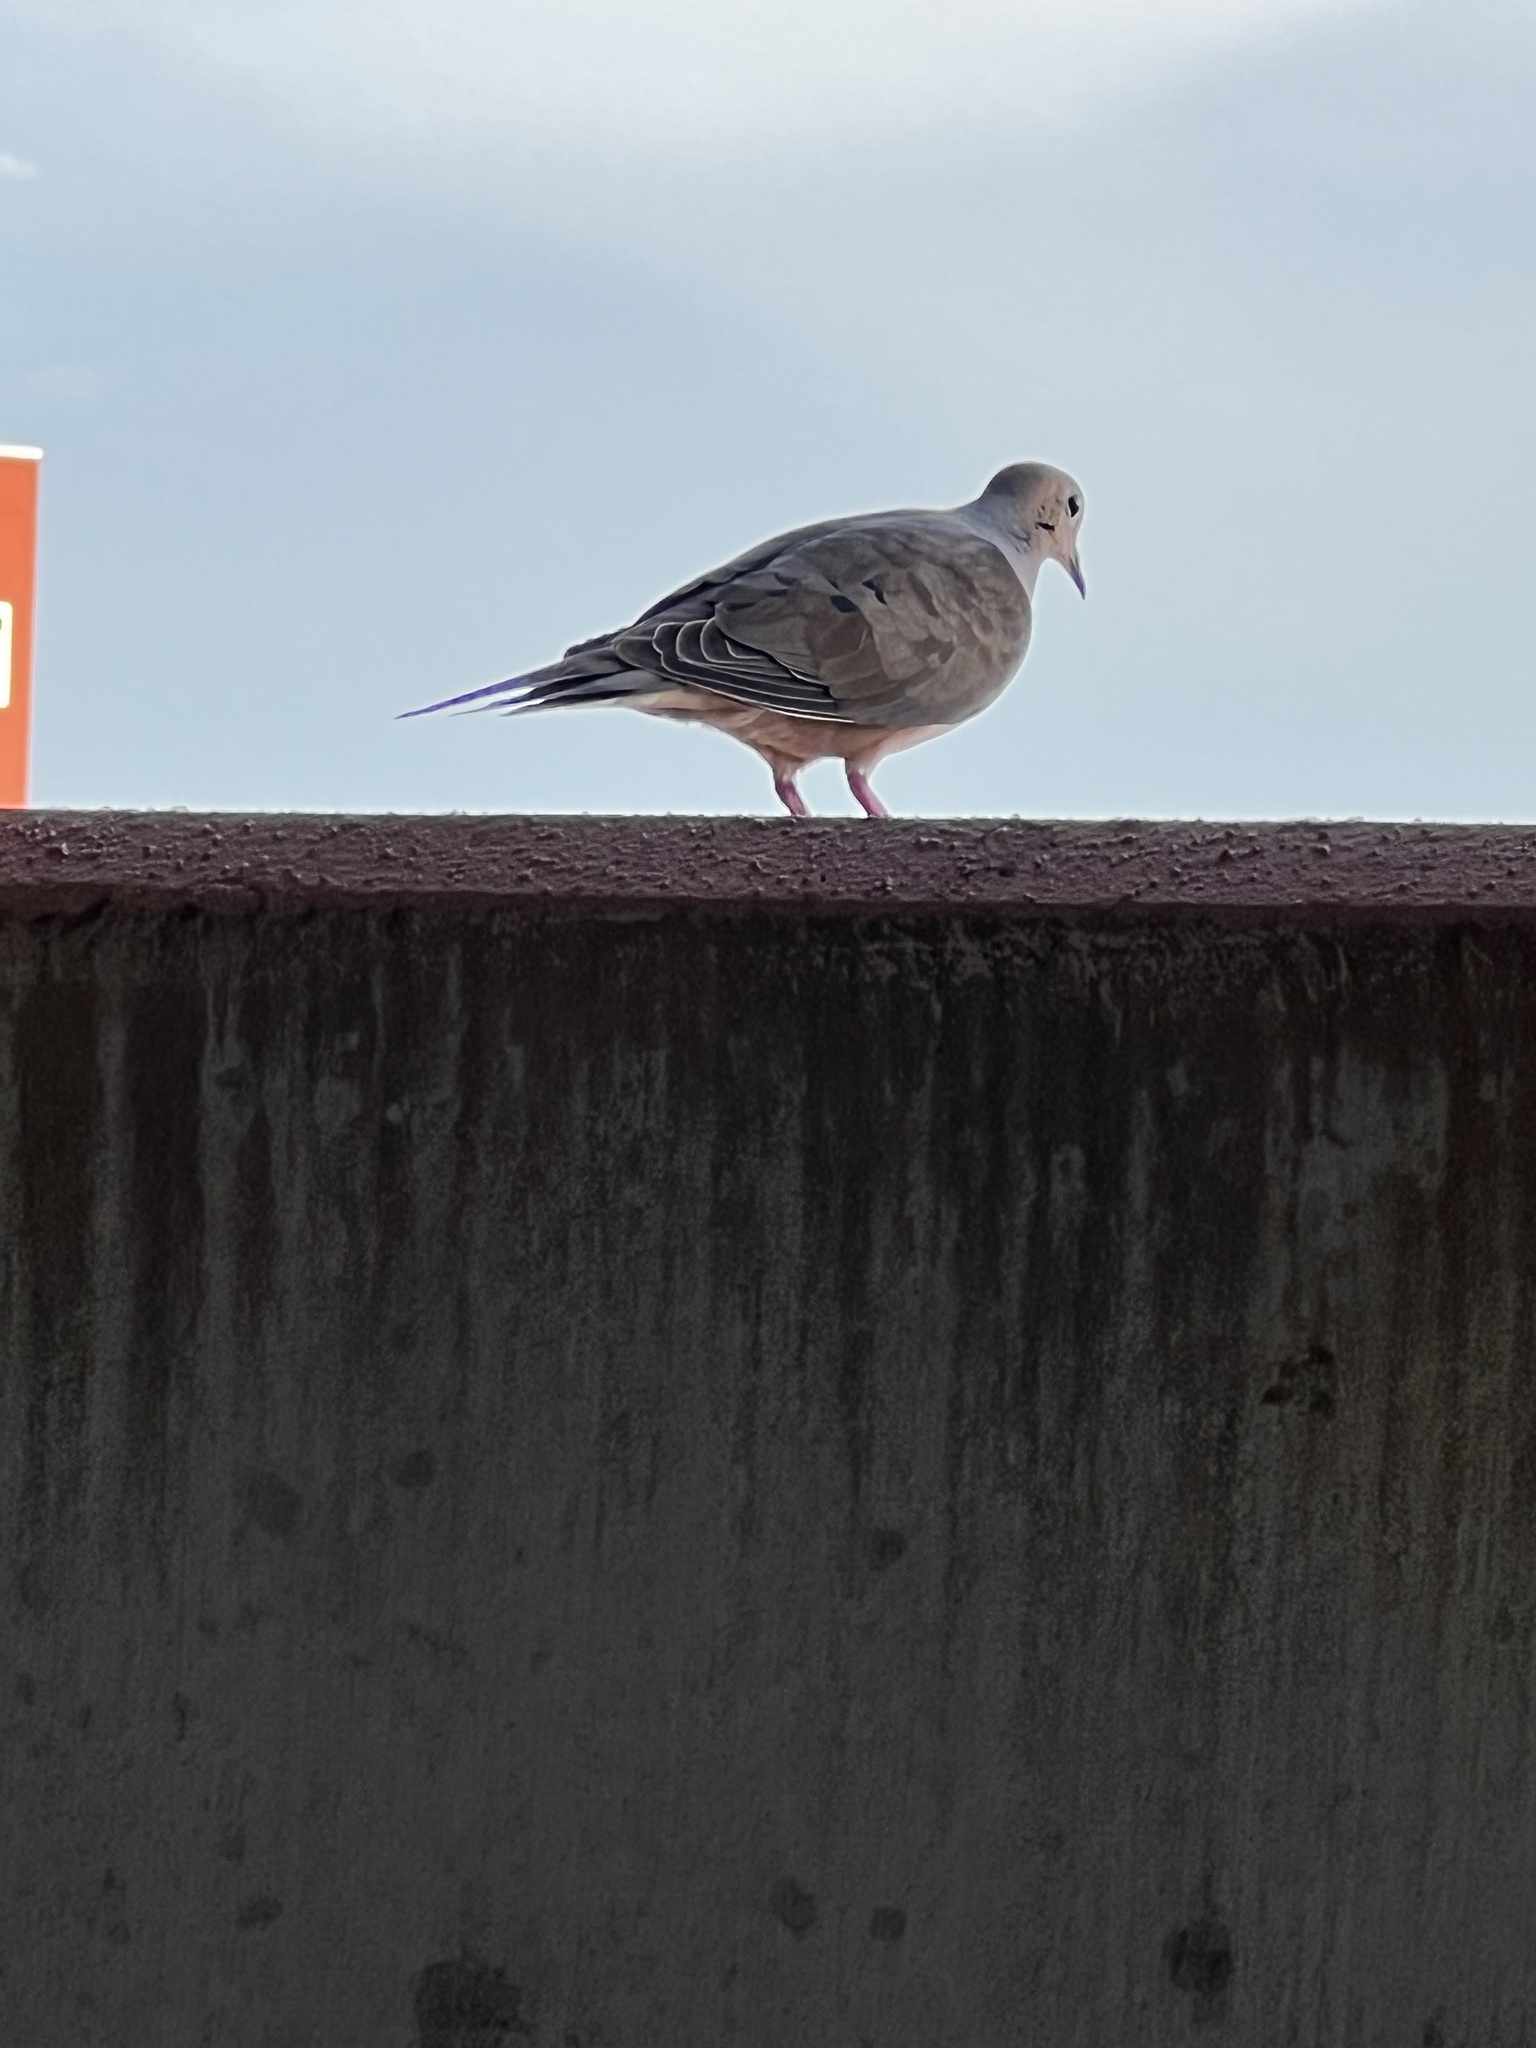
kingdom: Animalia
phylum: Chordata
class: Aves
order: Columbiformes
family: Columbidae
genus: Zenaida
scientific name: Zenaida macroura
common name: Mourning dove
